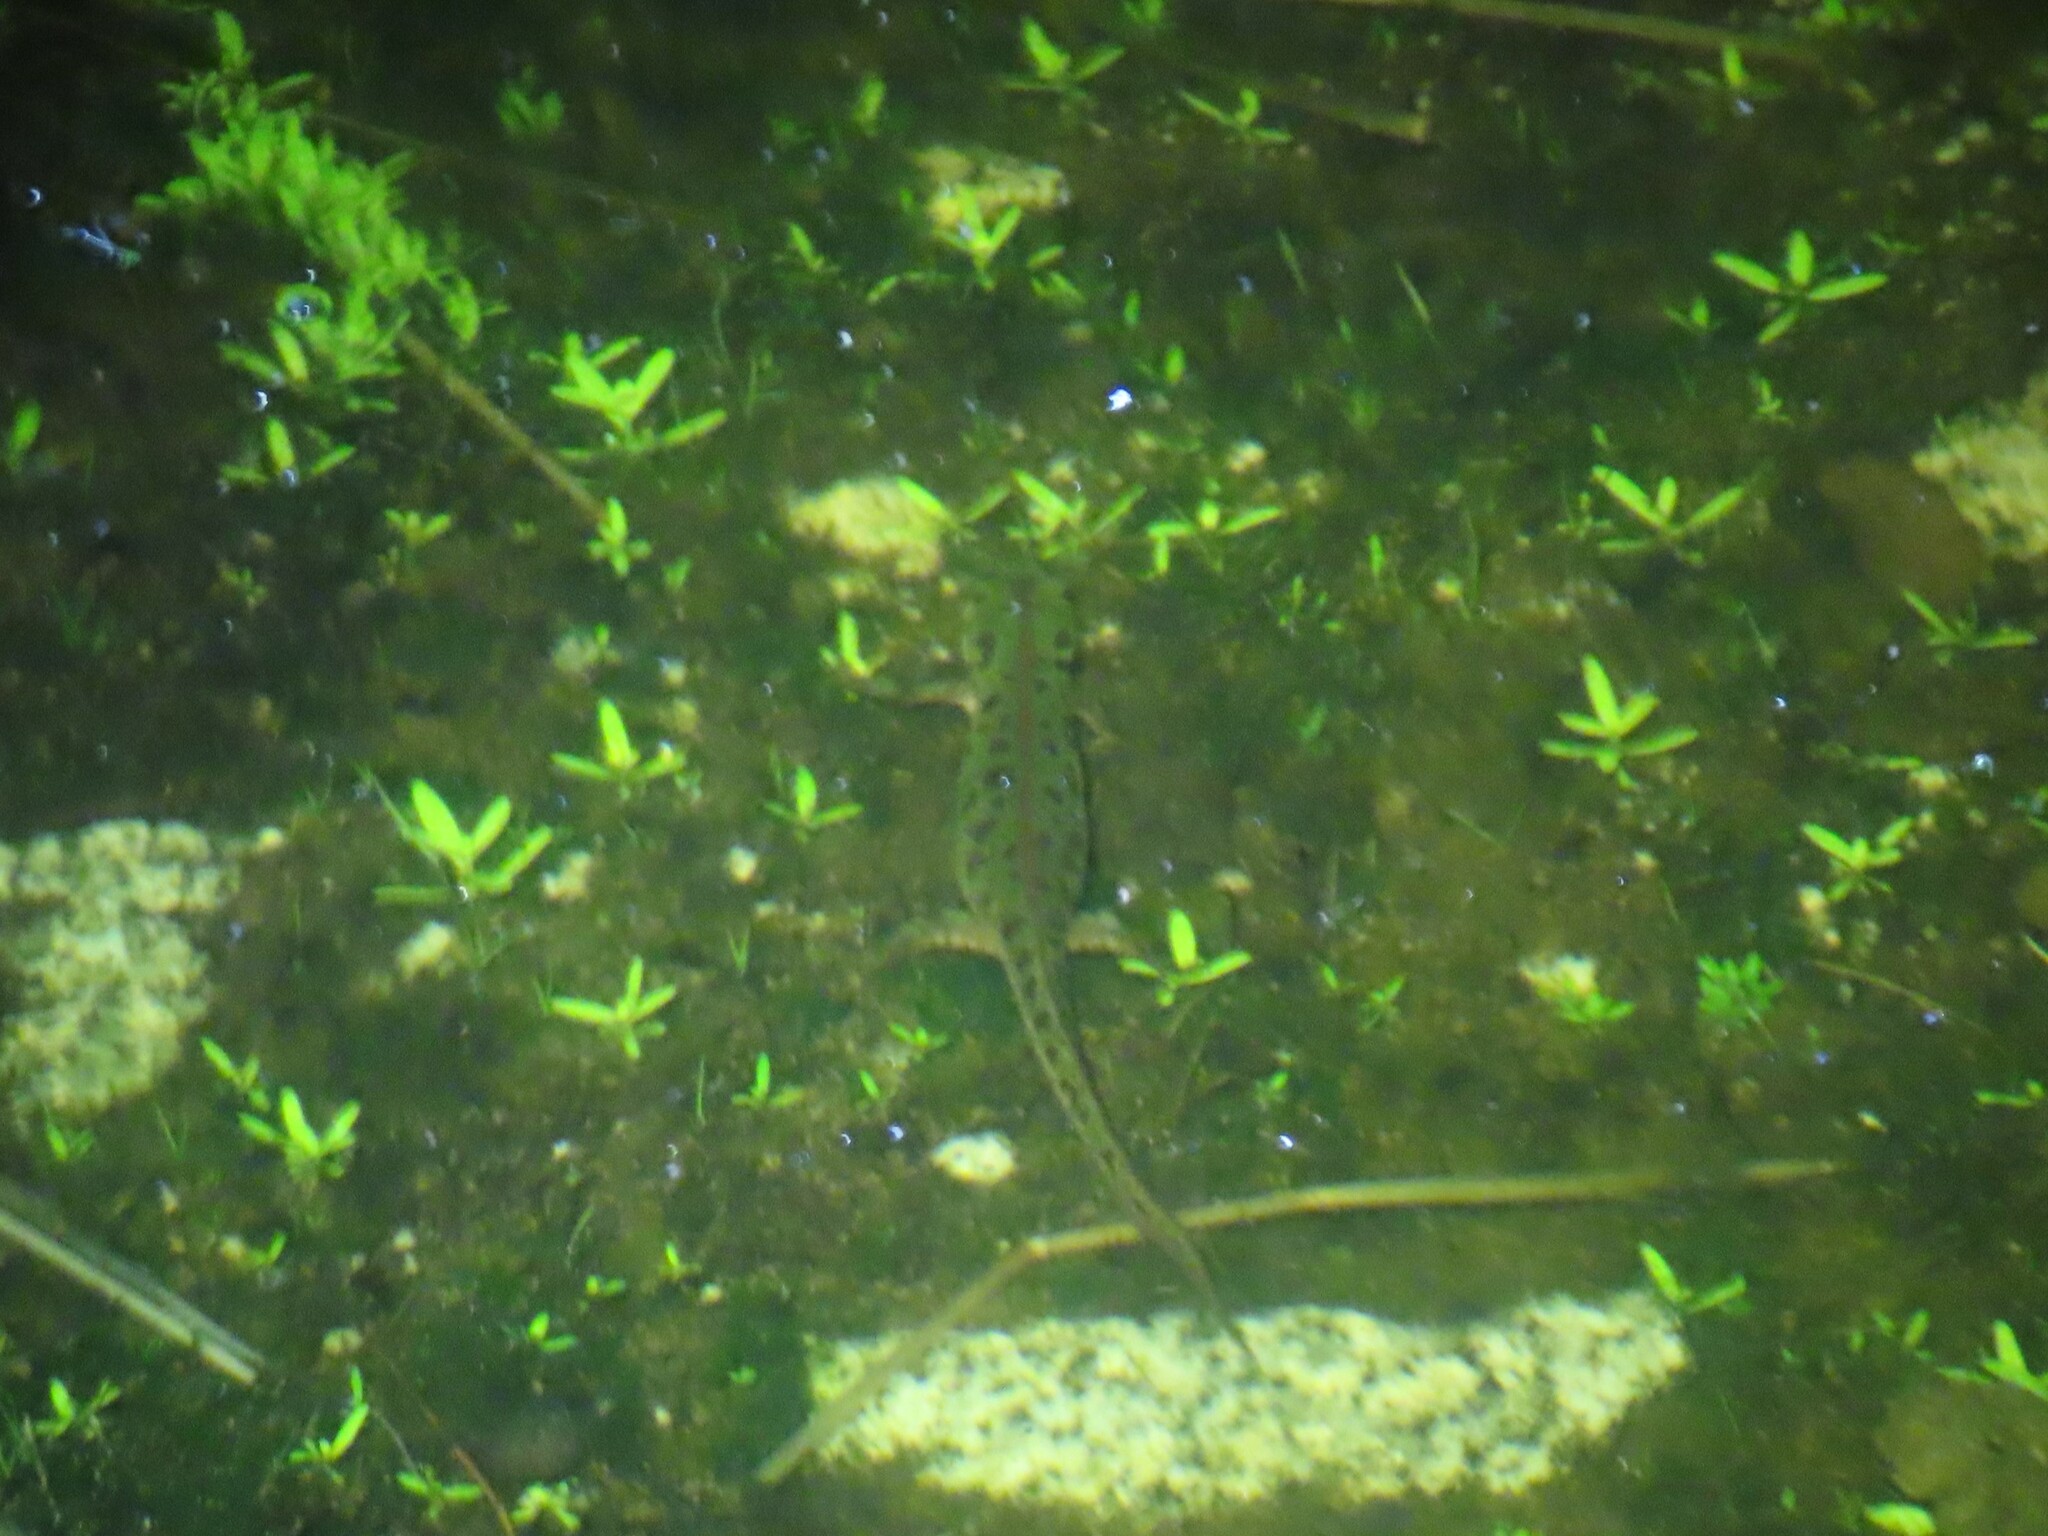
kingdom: Animalia
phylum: Chordata
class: Amphibia
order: Caudata
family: Salamandridae
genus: Triturus
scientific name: Triturus pygmaeus
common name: Southern marbled newt
